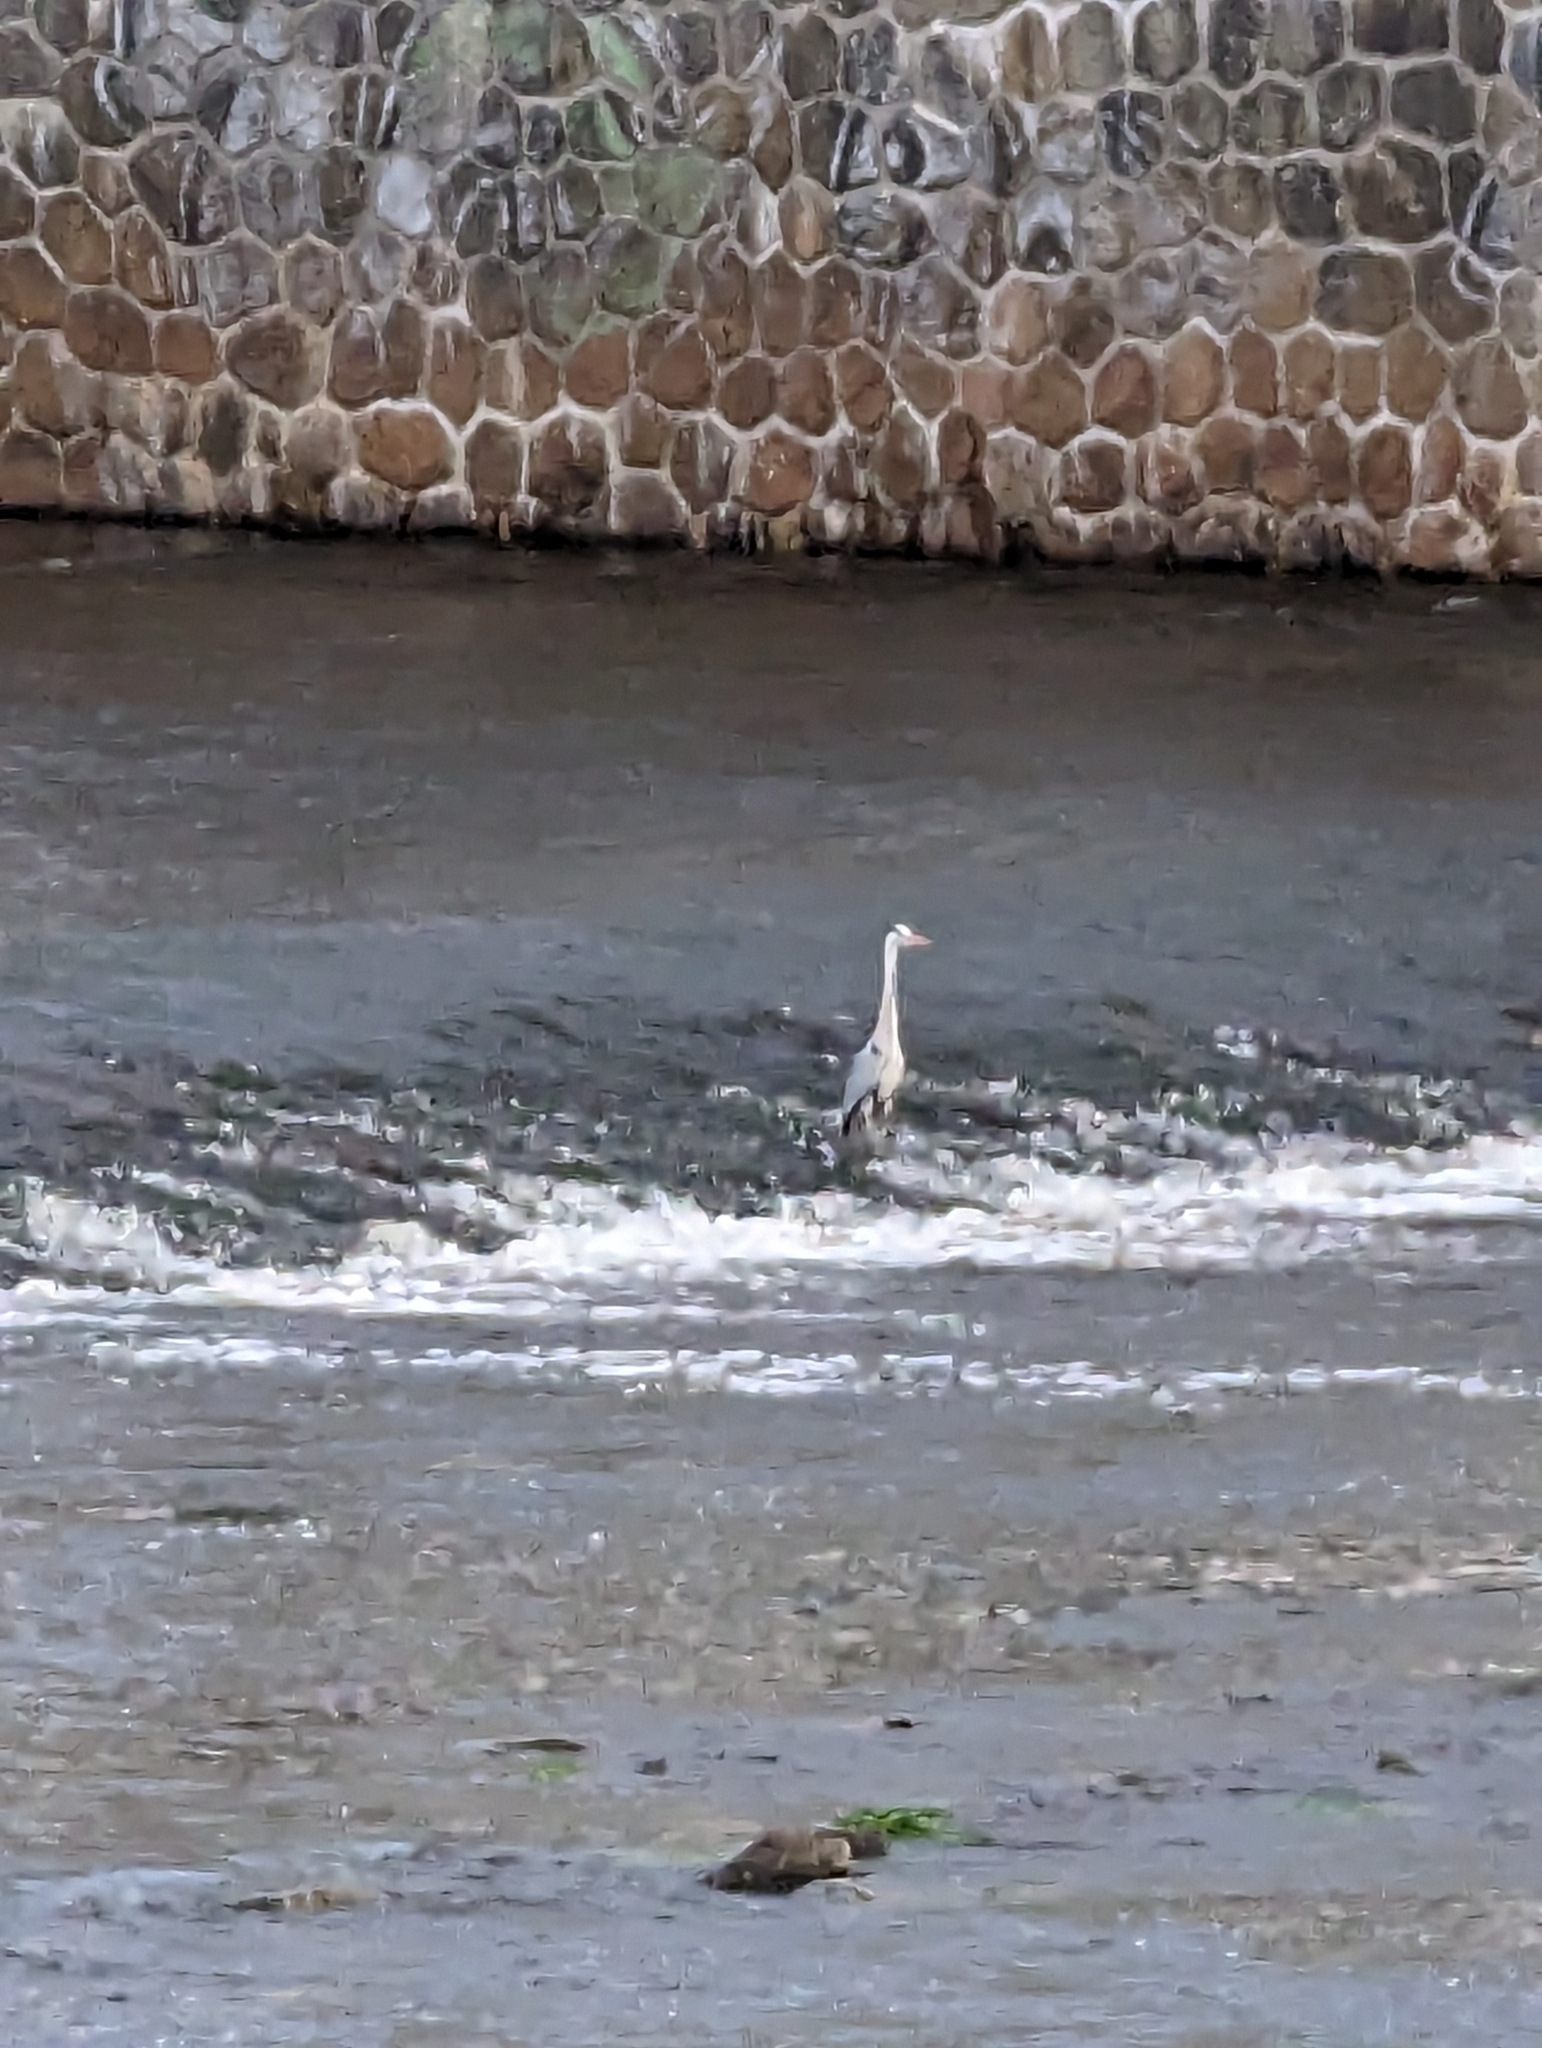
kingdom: Animalia
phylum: Chordata
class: Aves
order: Pelecaniformes
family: Ardeidae
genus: Ardea
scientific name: Ardea cinerea
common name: Grey heron
